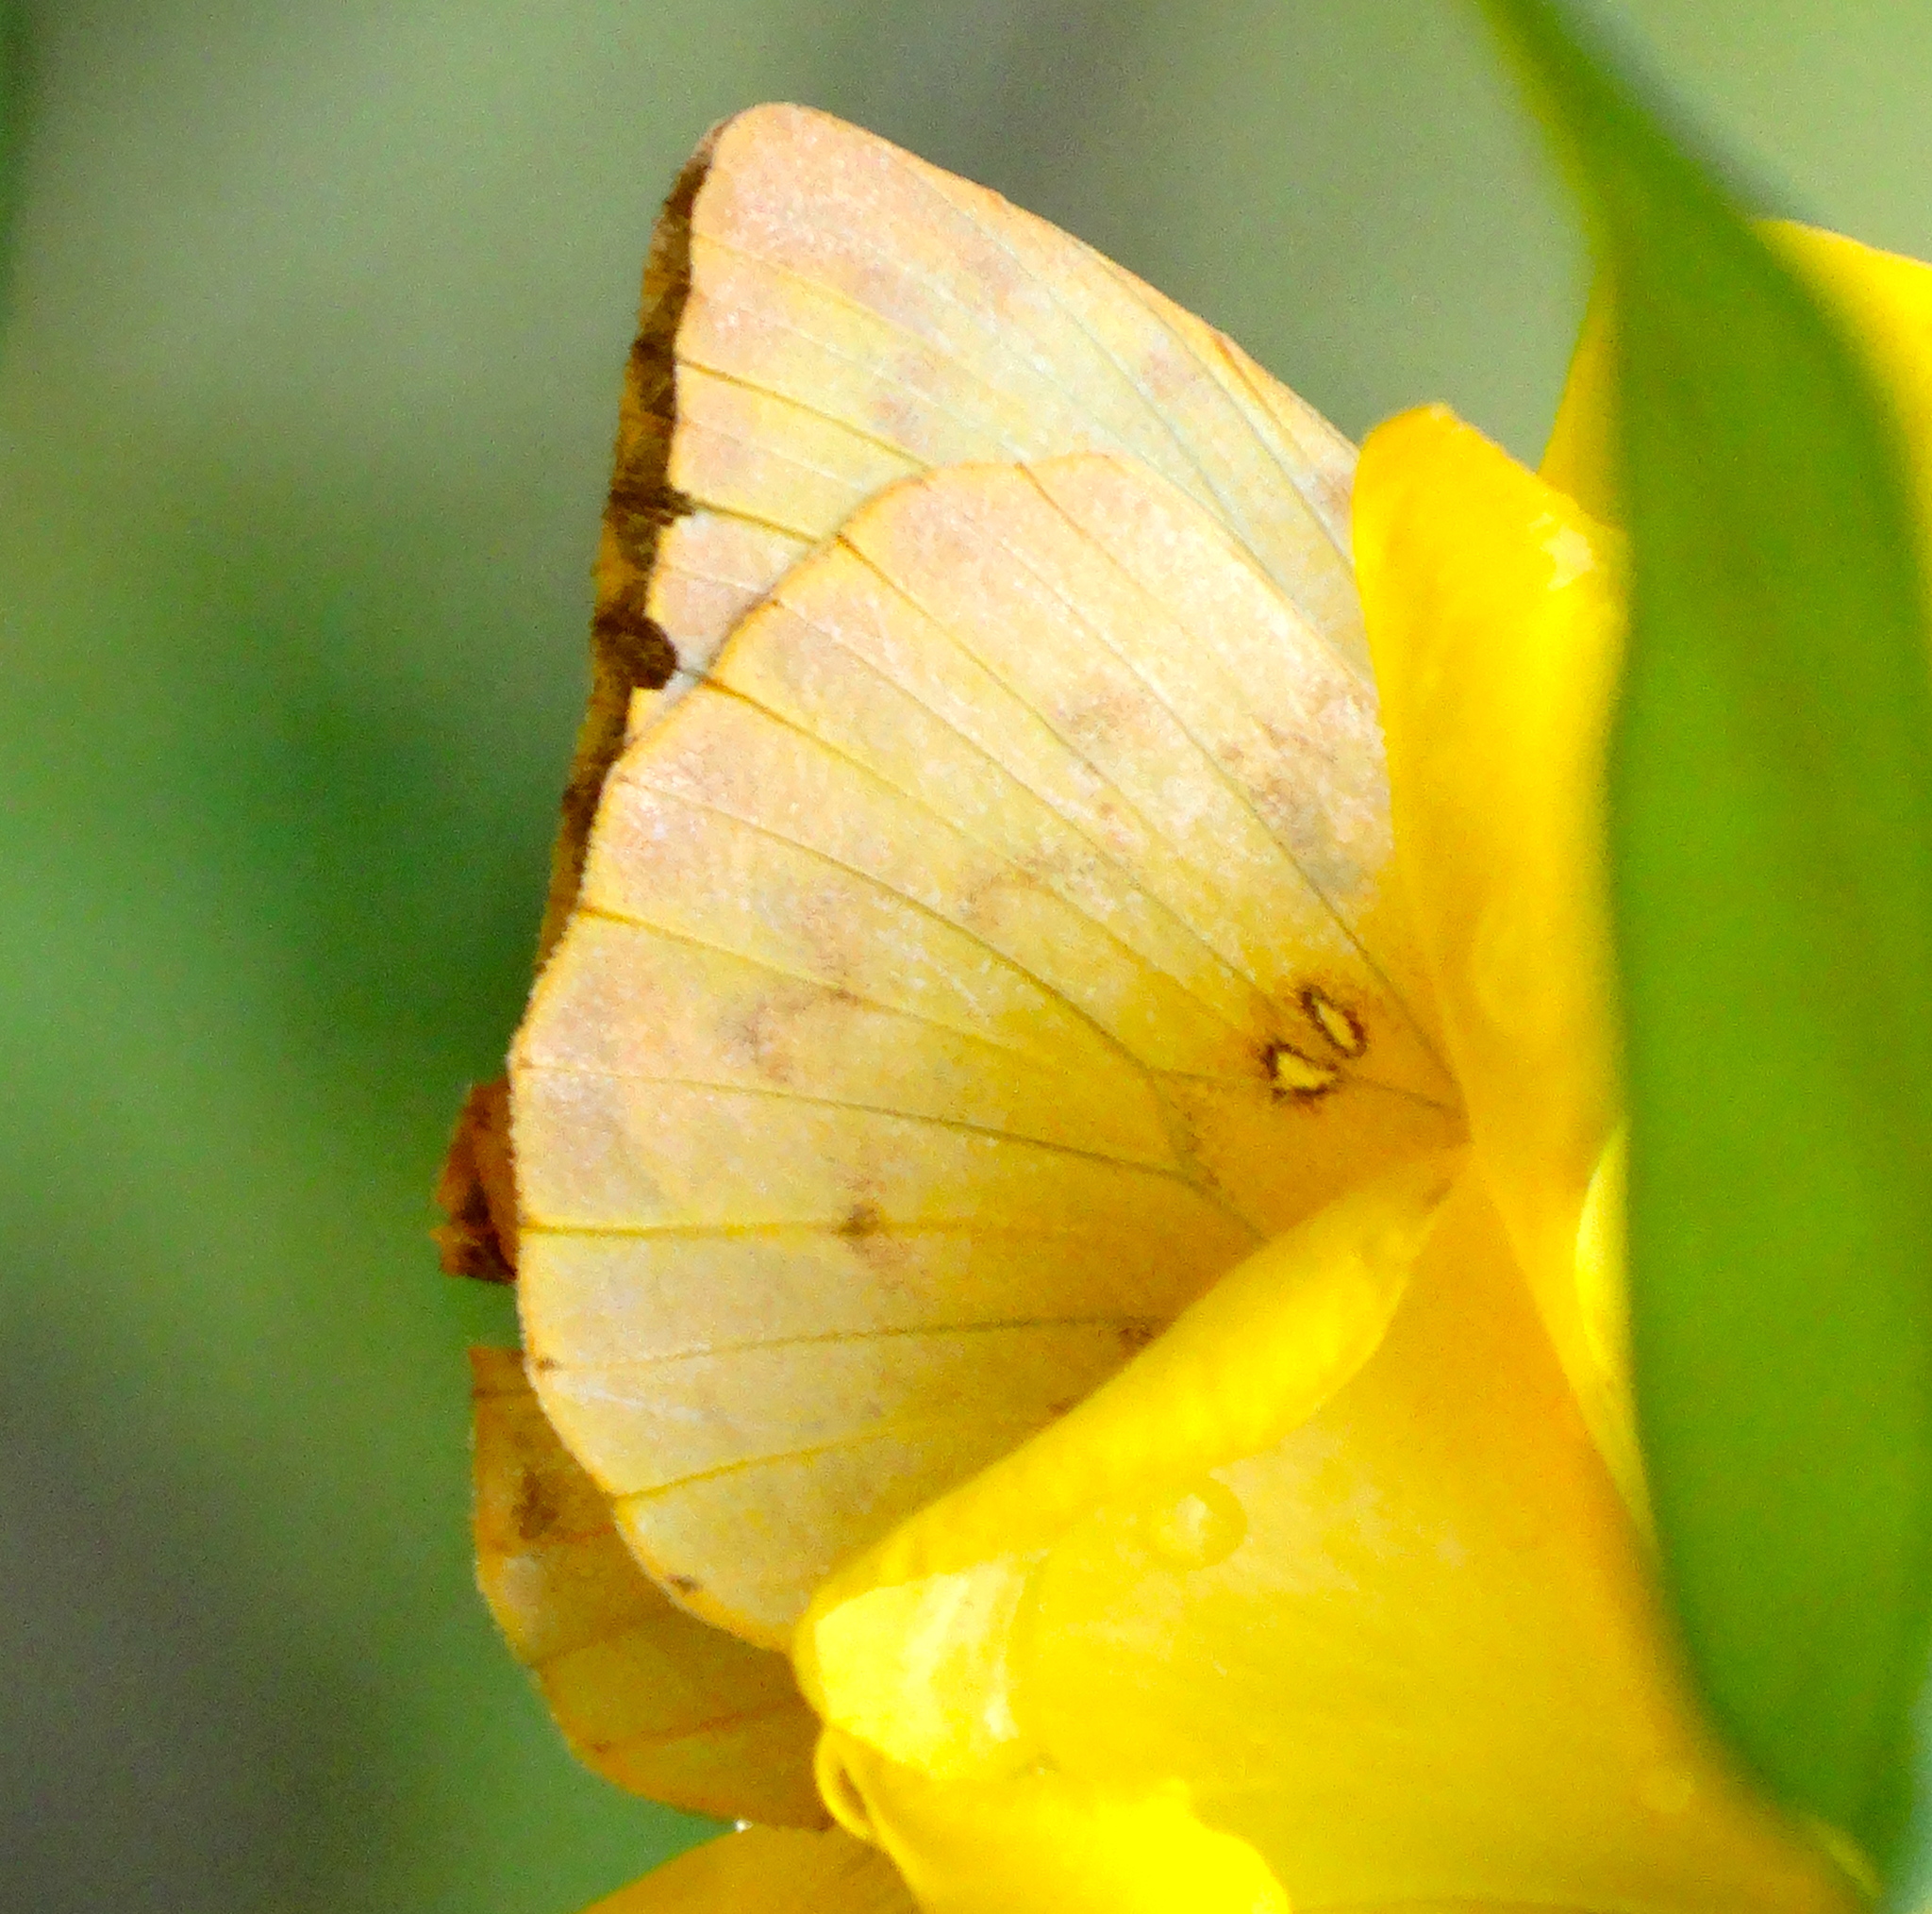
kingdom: Animalia
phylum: Arthropoda
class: Insecta
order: Lepidoptera
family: Pieridae
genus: Phoebis
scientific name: Phoebis philea
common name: Orange-barred giant sulphur
